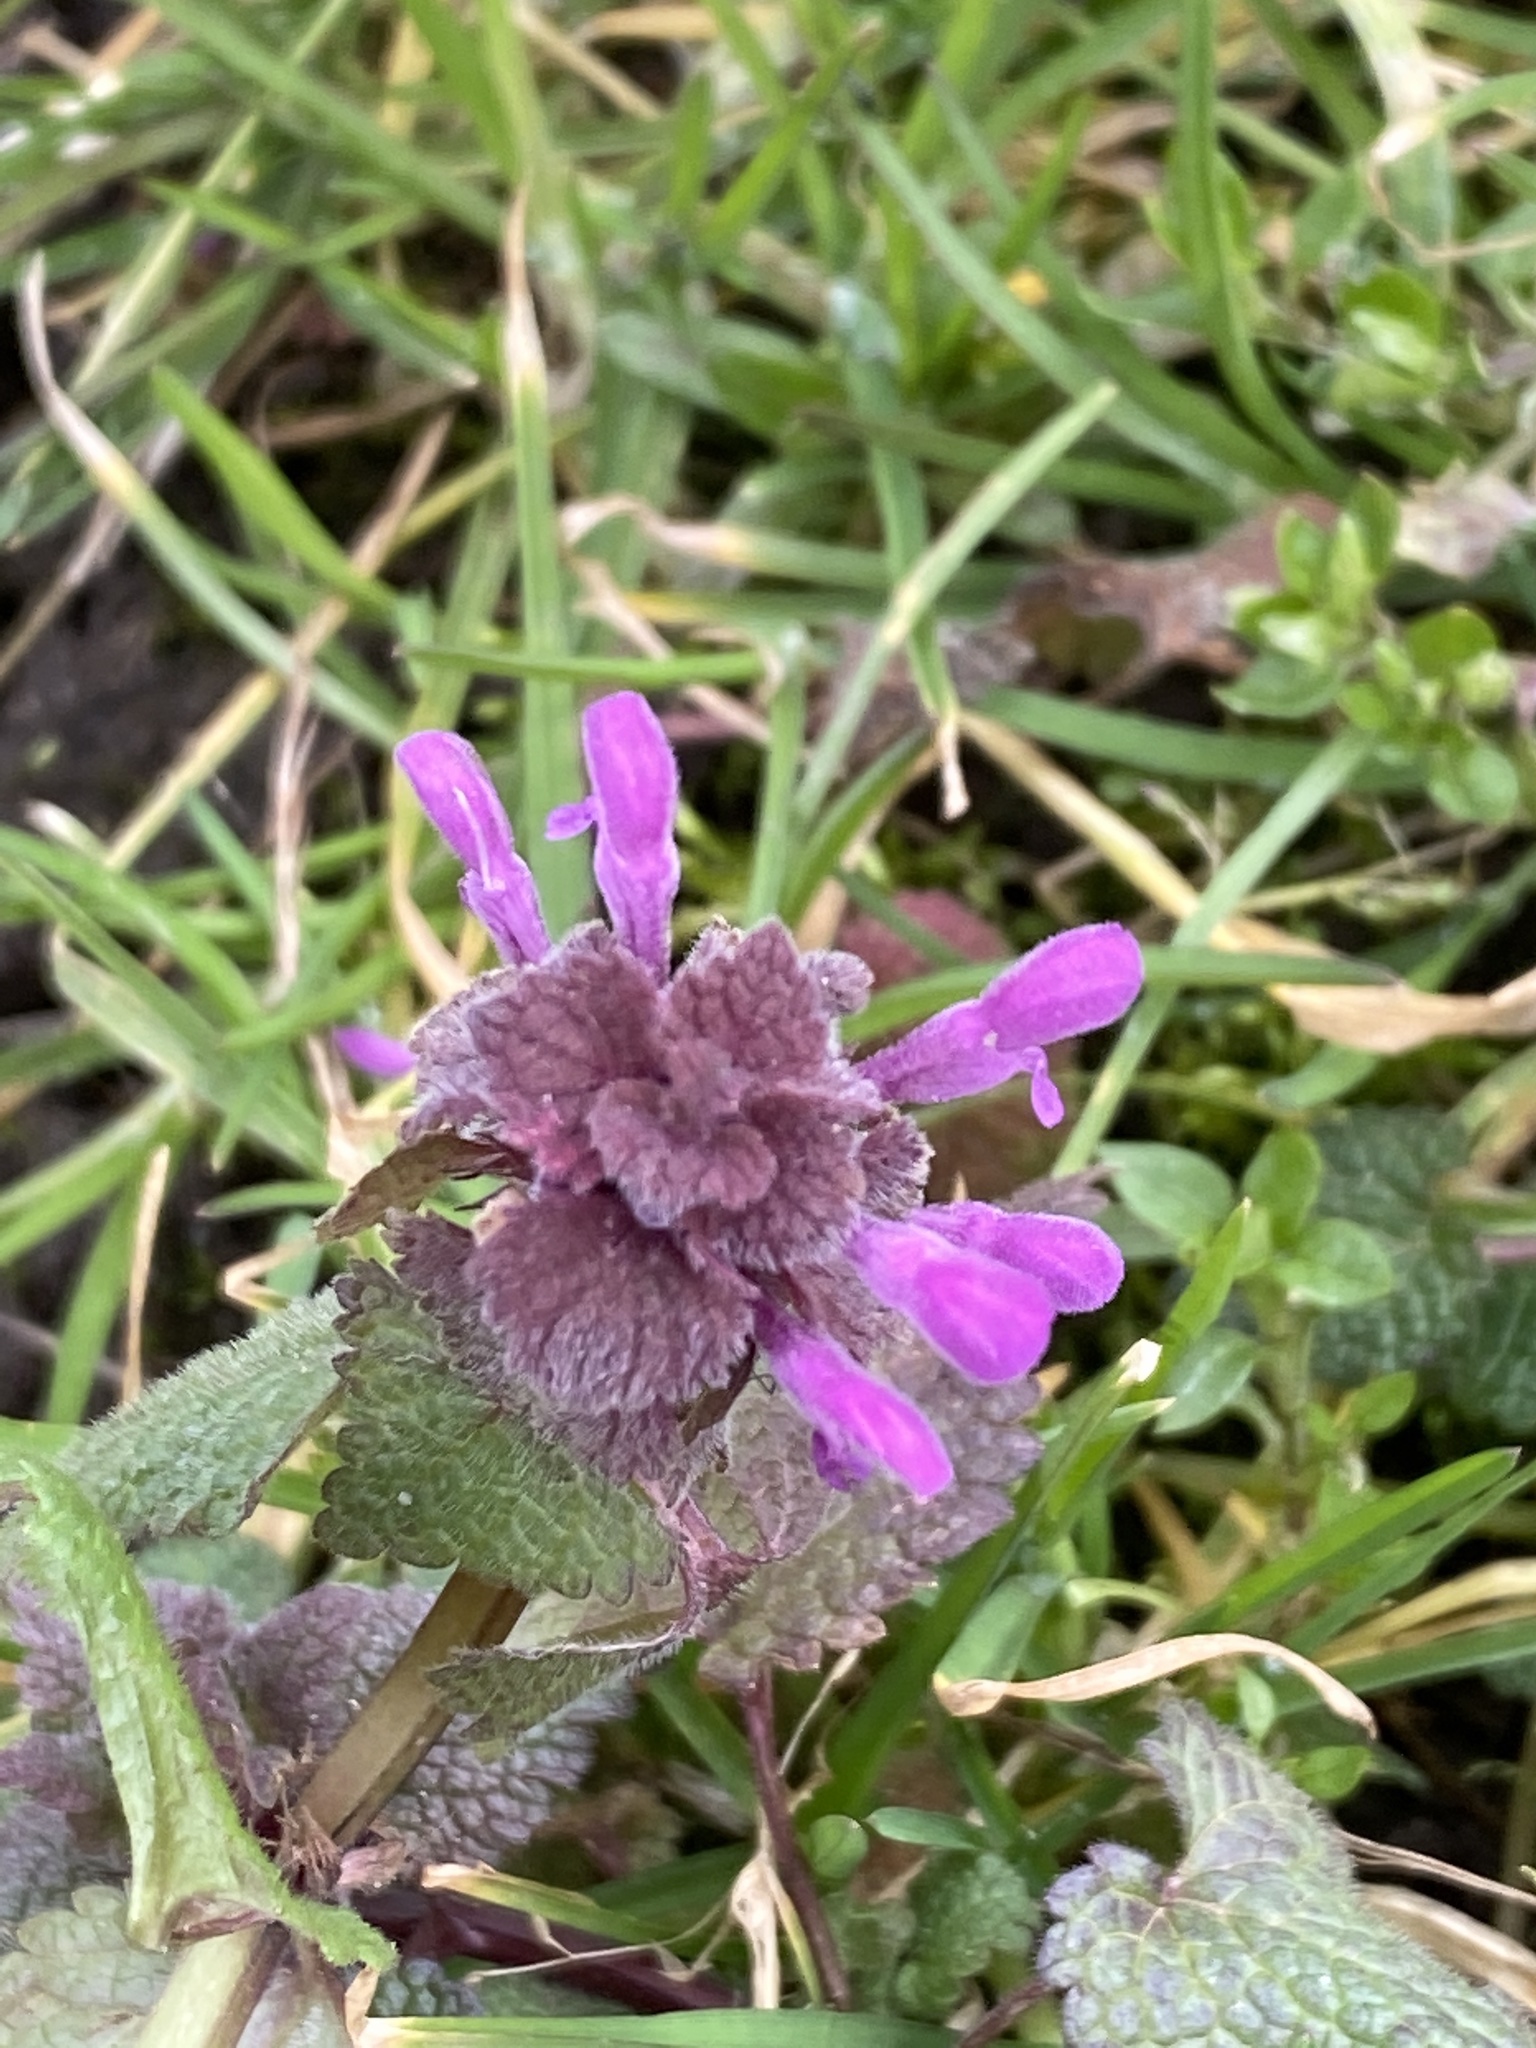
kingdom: Plantae
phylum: Tracheophyta
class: Magnoliopsida
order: Lamiales
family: Lamiaceae
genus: Lamium
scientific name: Lamium purpureum
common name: Red dead-nettle
